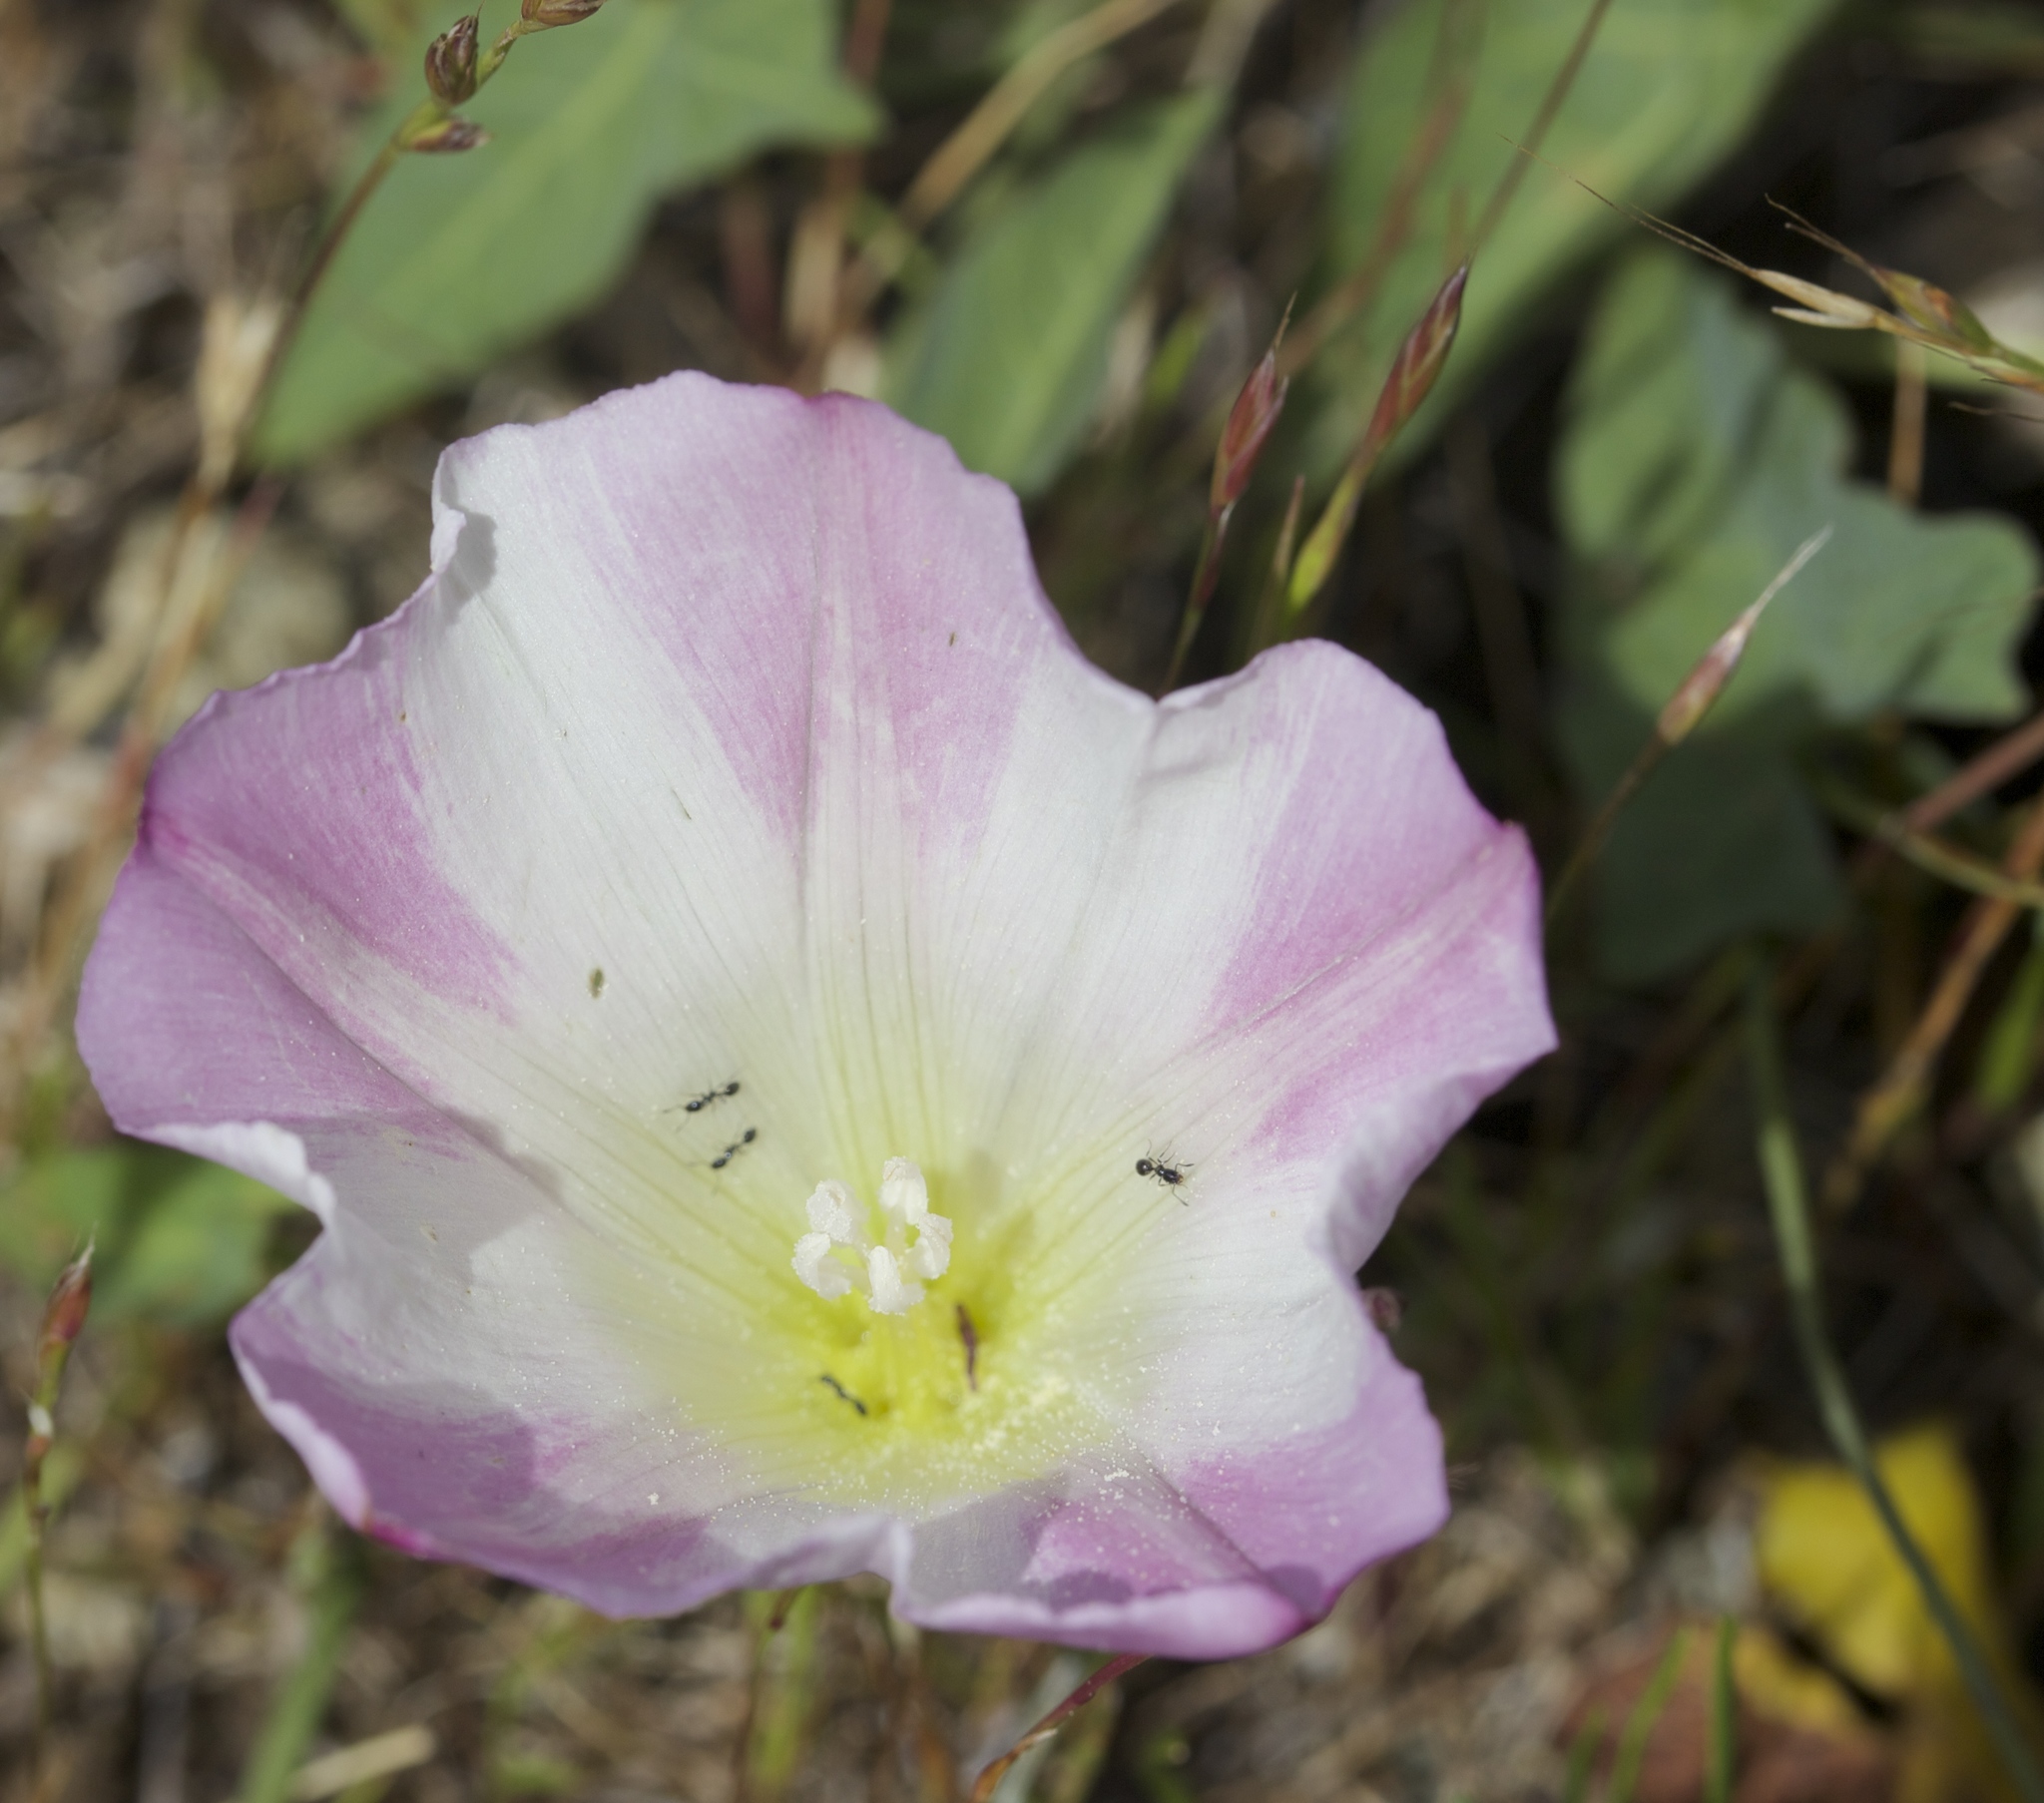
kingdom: Plantae
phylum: Tracheophyta
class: Magnoliopsida
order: Solanales
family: Convolvulaceae
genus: Calystegia
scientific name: Calystegia purpurata
